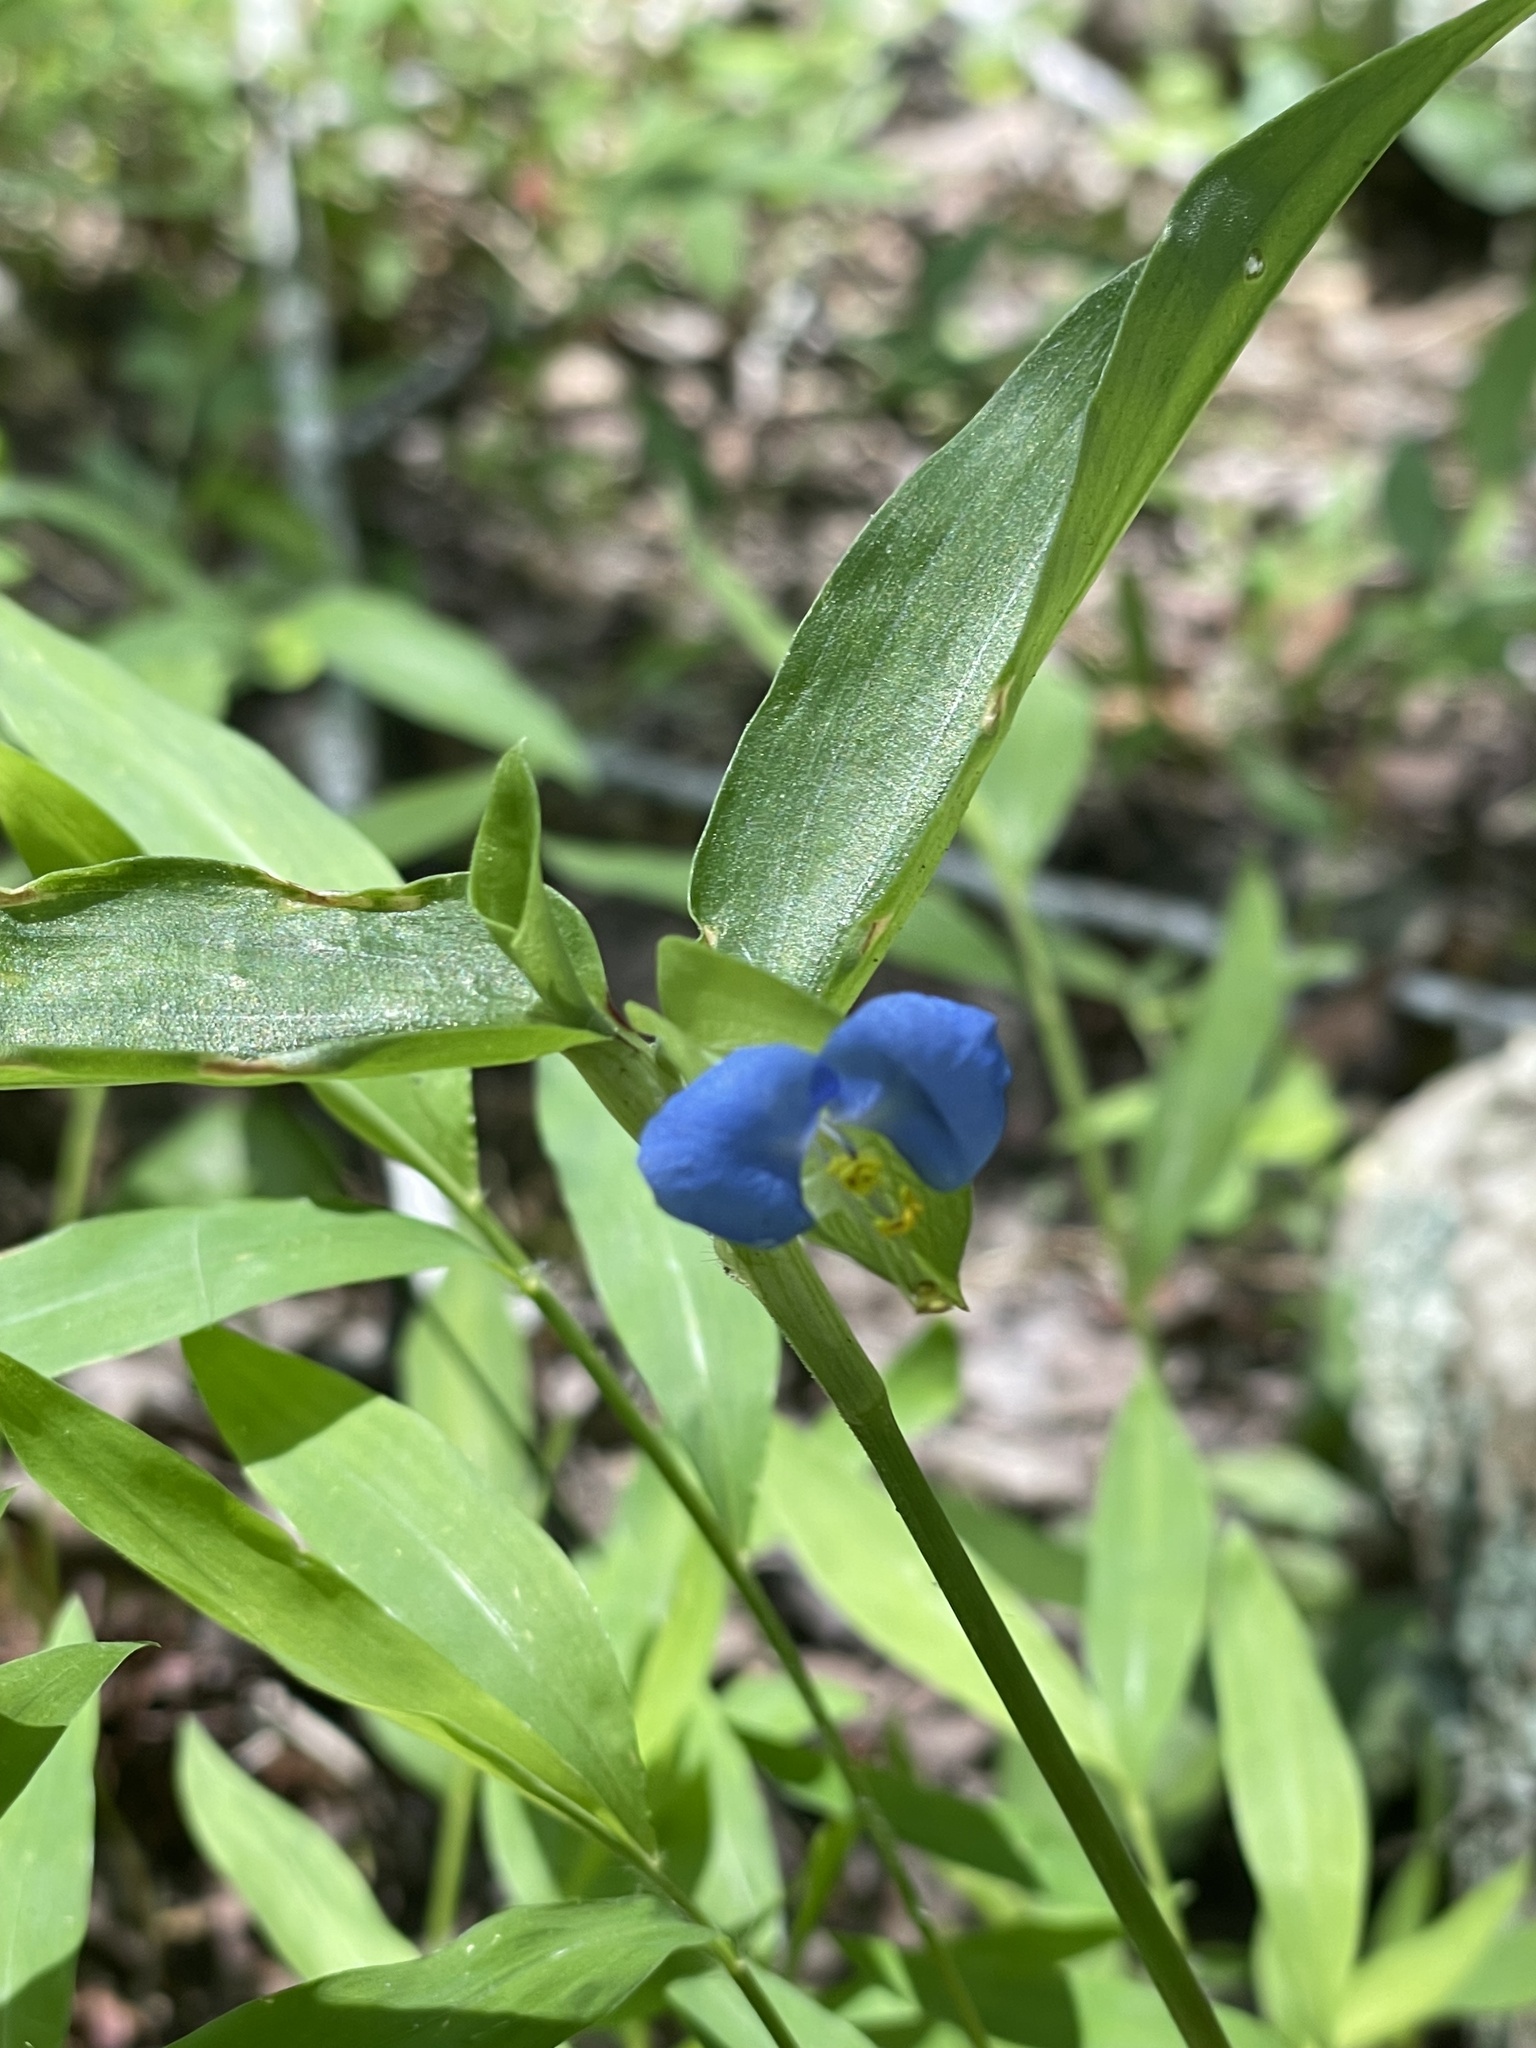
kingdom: Plantae
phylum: Tracheophyta
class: Liliopsida
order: Commelinales
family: Commelinaceae
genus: Commelina
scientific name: Commelina communis
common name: Asiatic dayflower
